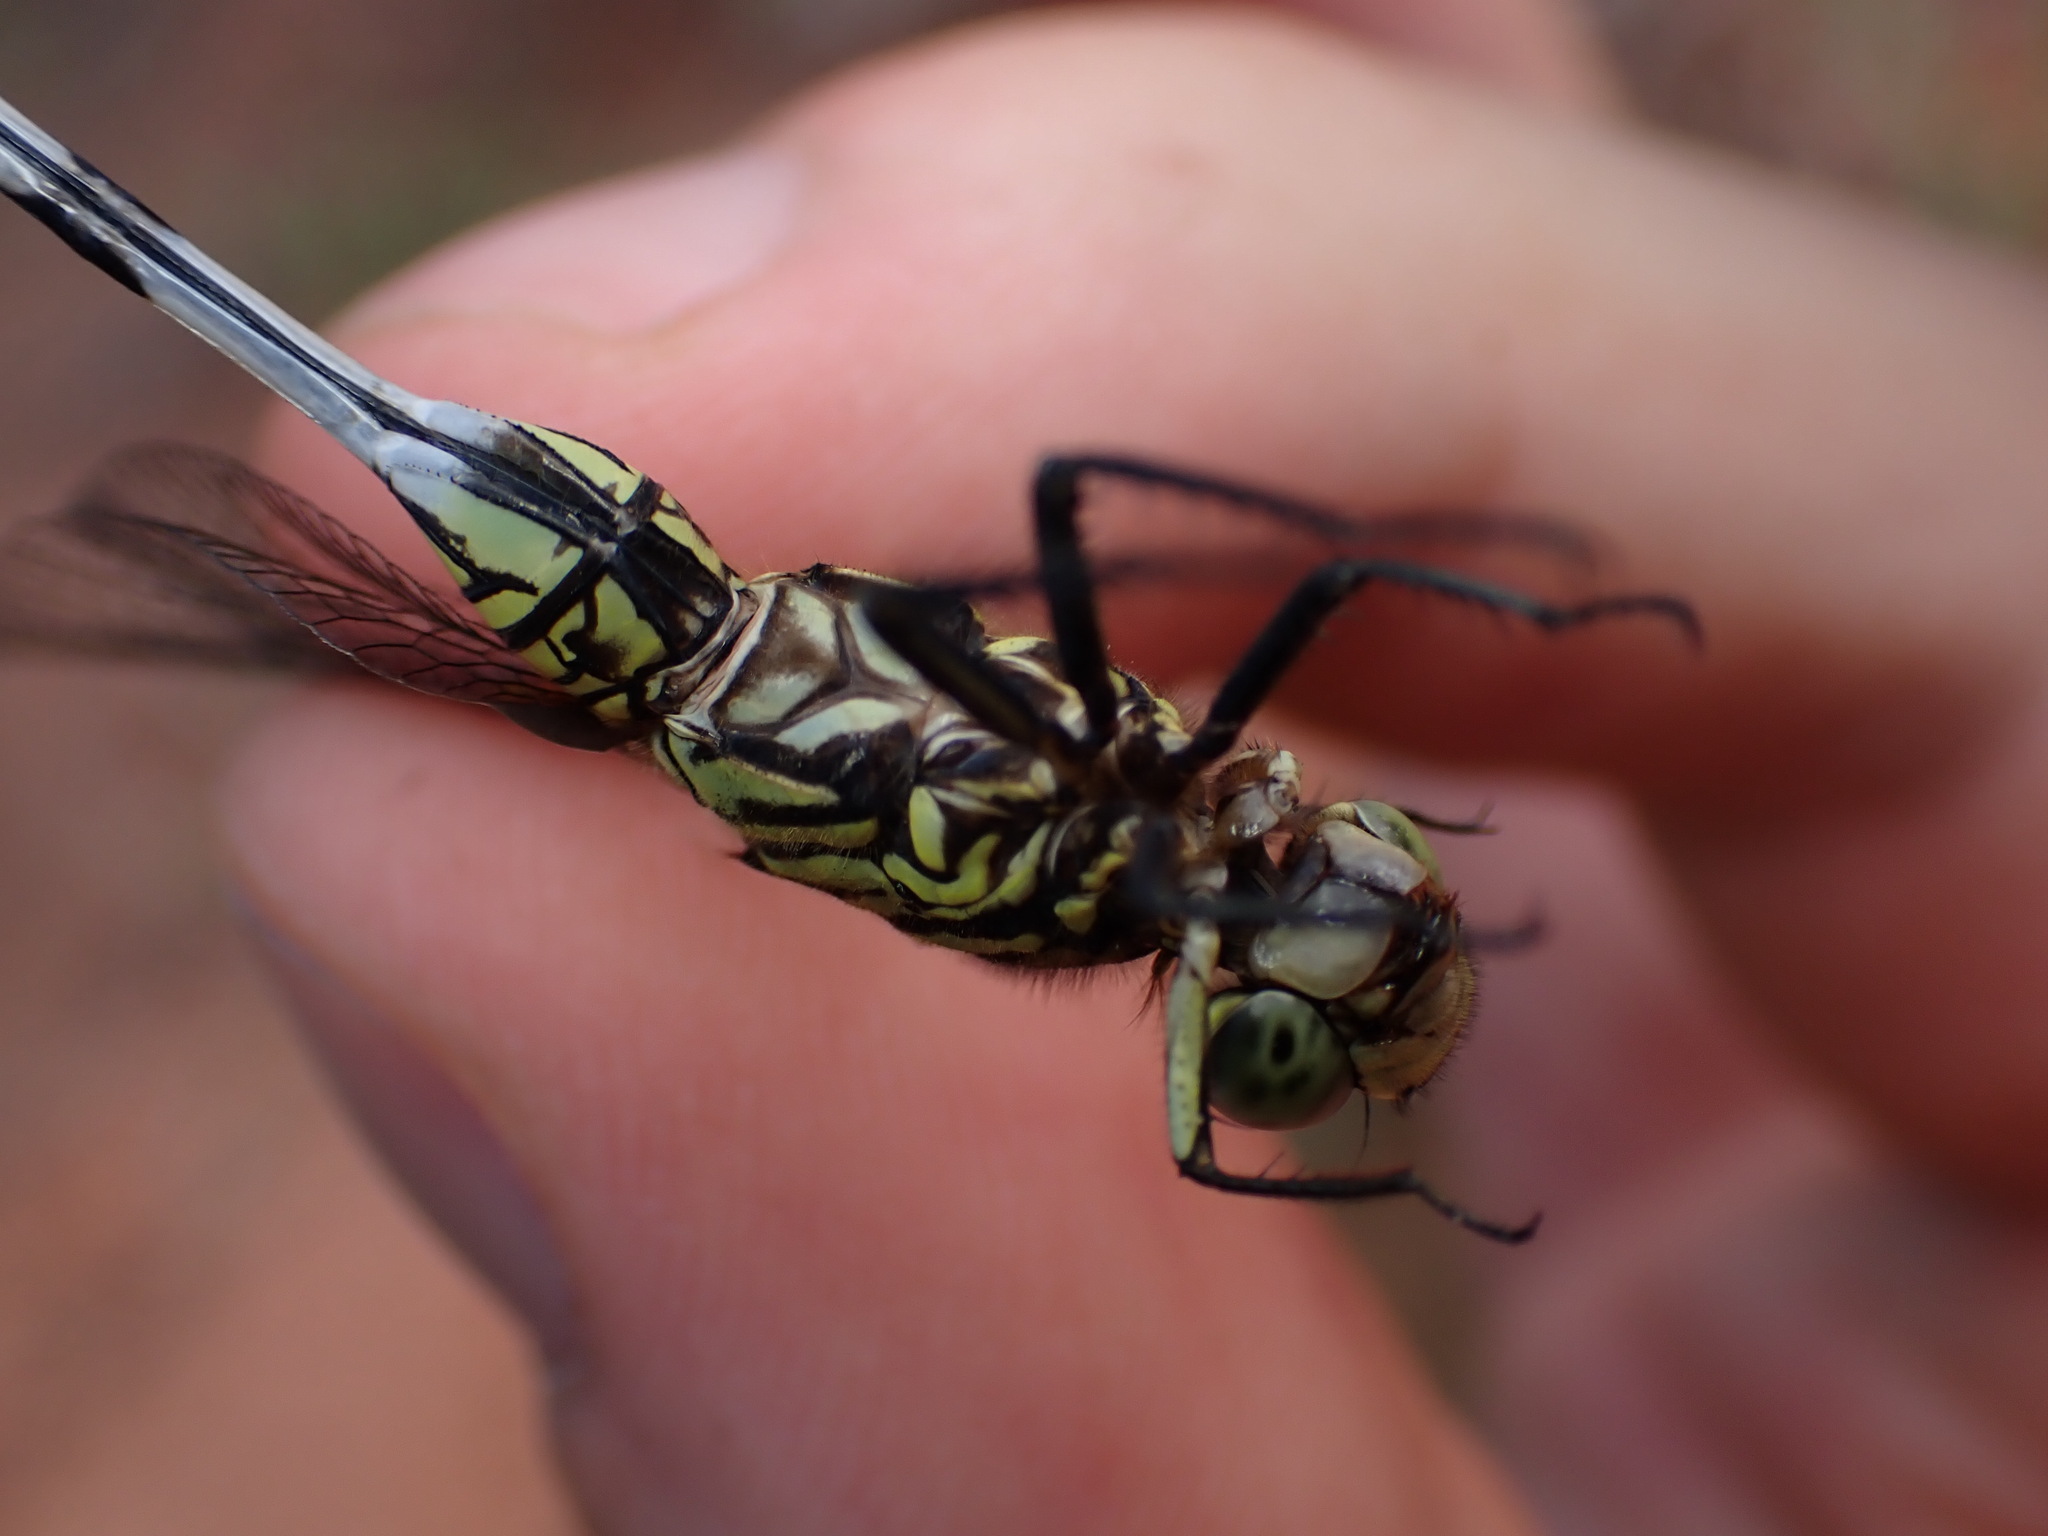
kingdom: Animalia
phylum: Arthropoda
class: Insecta
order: Odonata
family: Libellulidae
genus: Orthetrum
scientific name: Orthetrum sabina
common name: Slender skimmer
